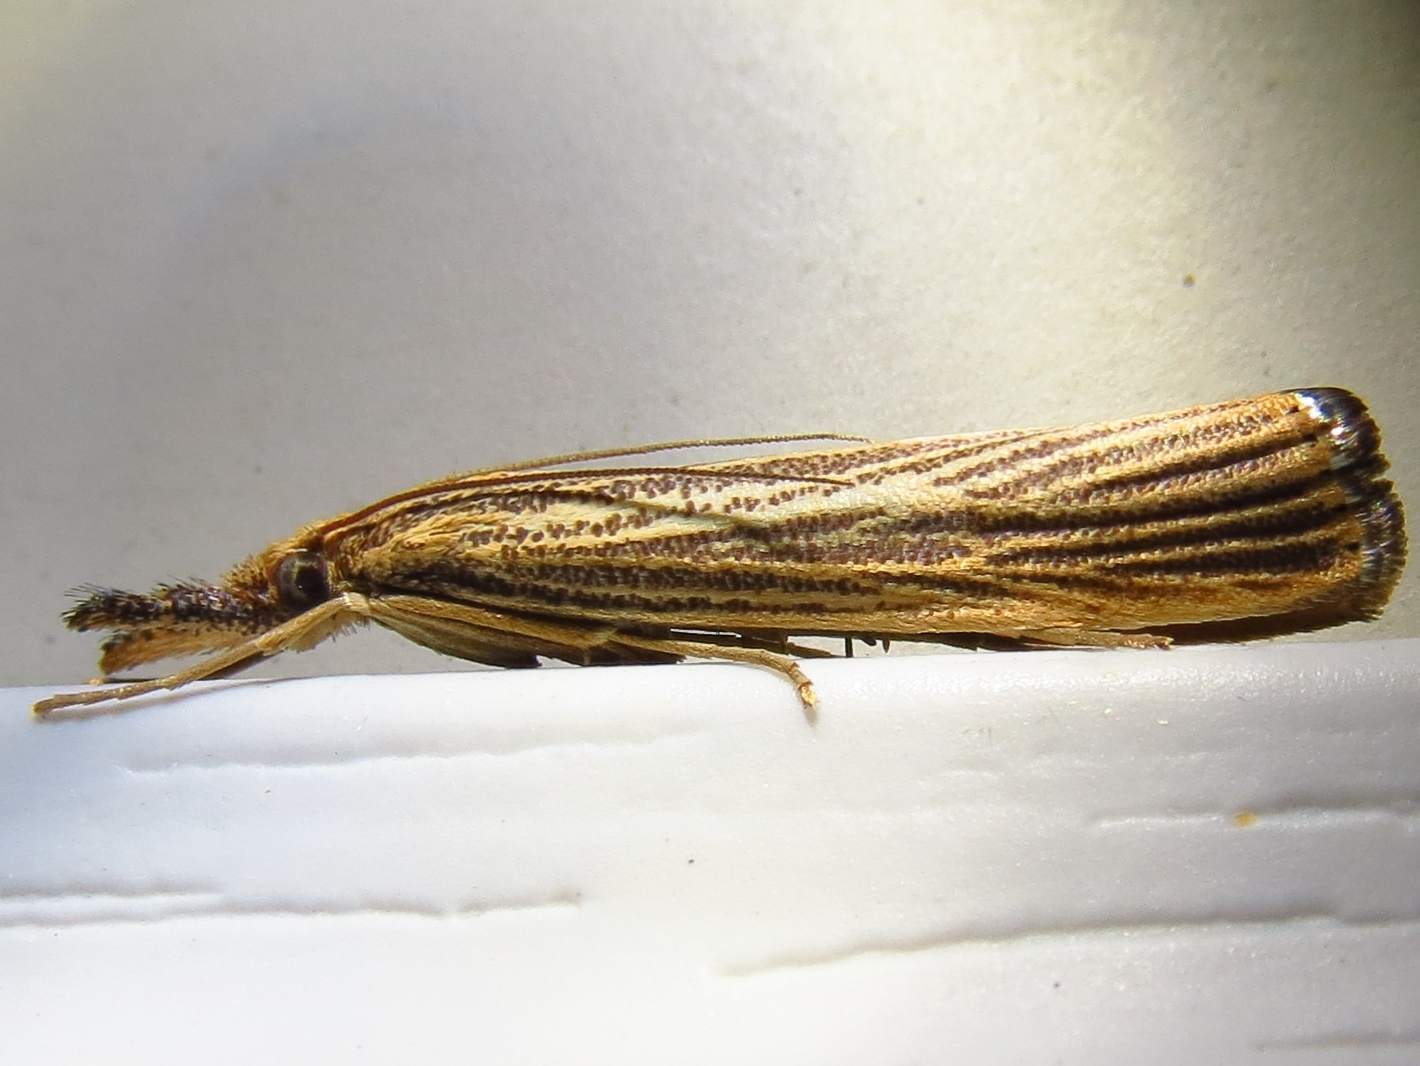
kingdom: Animalia
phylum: Arthropoda
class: Insecta
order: Lepidoptera
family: Crambidae
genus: Agriphila
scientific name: Agriphila vulgivagellus
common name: Vagabond crambus moth
